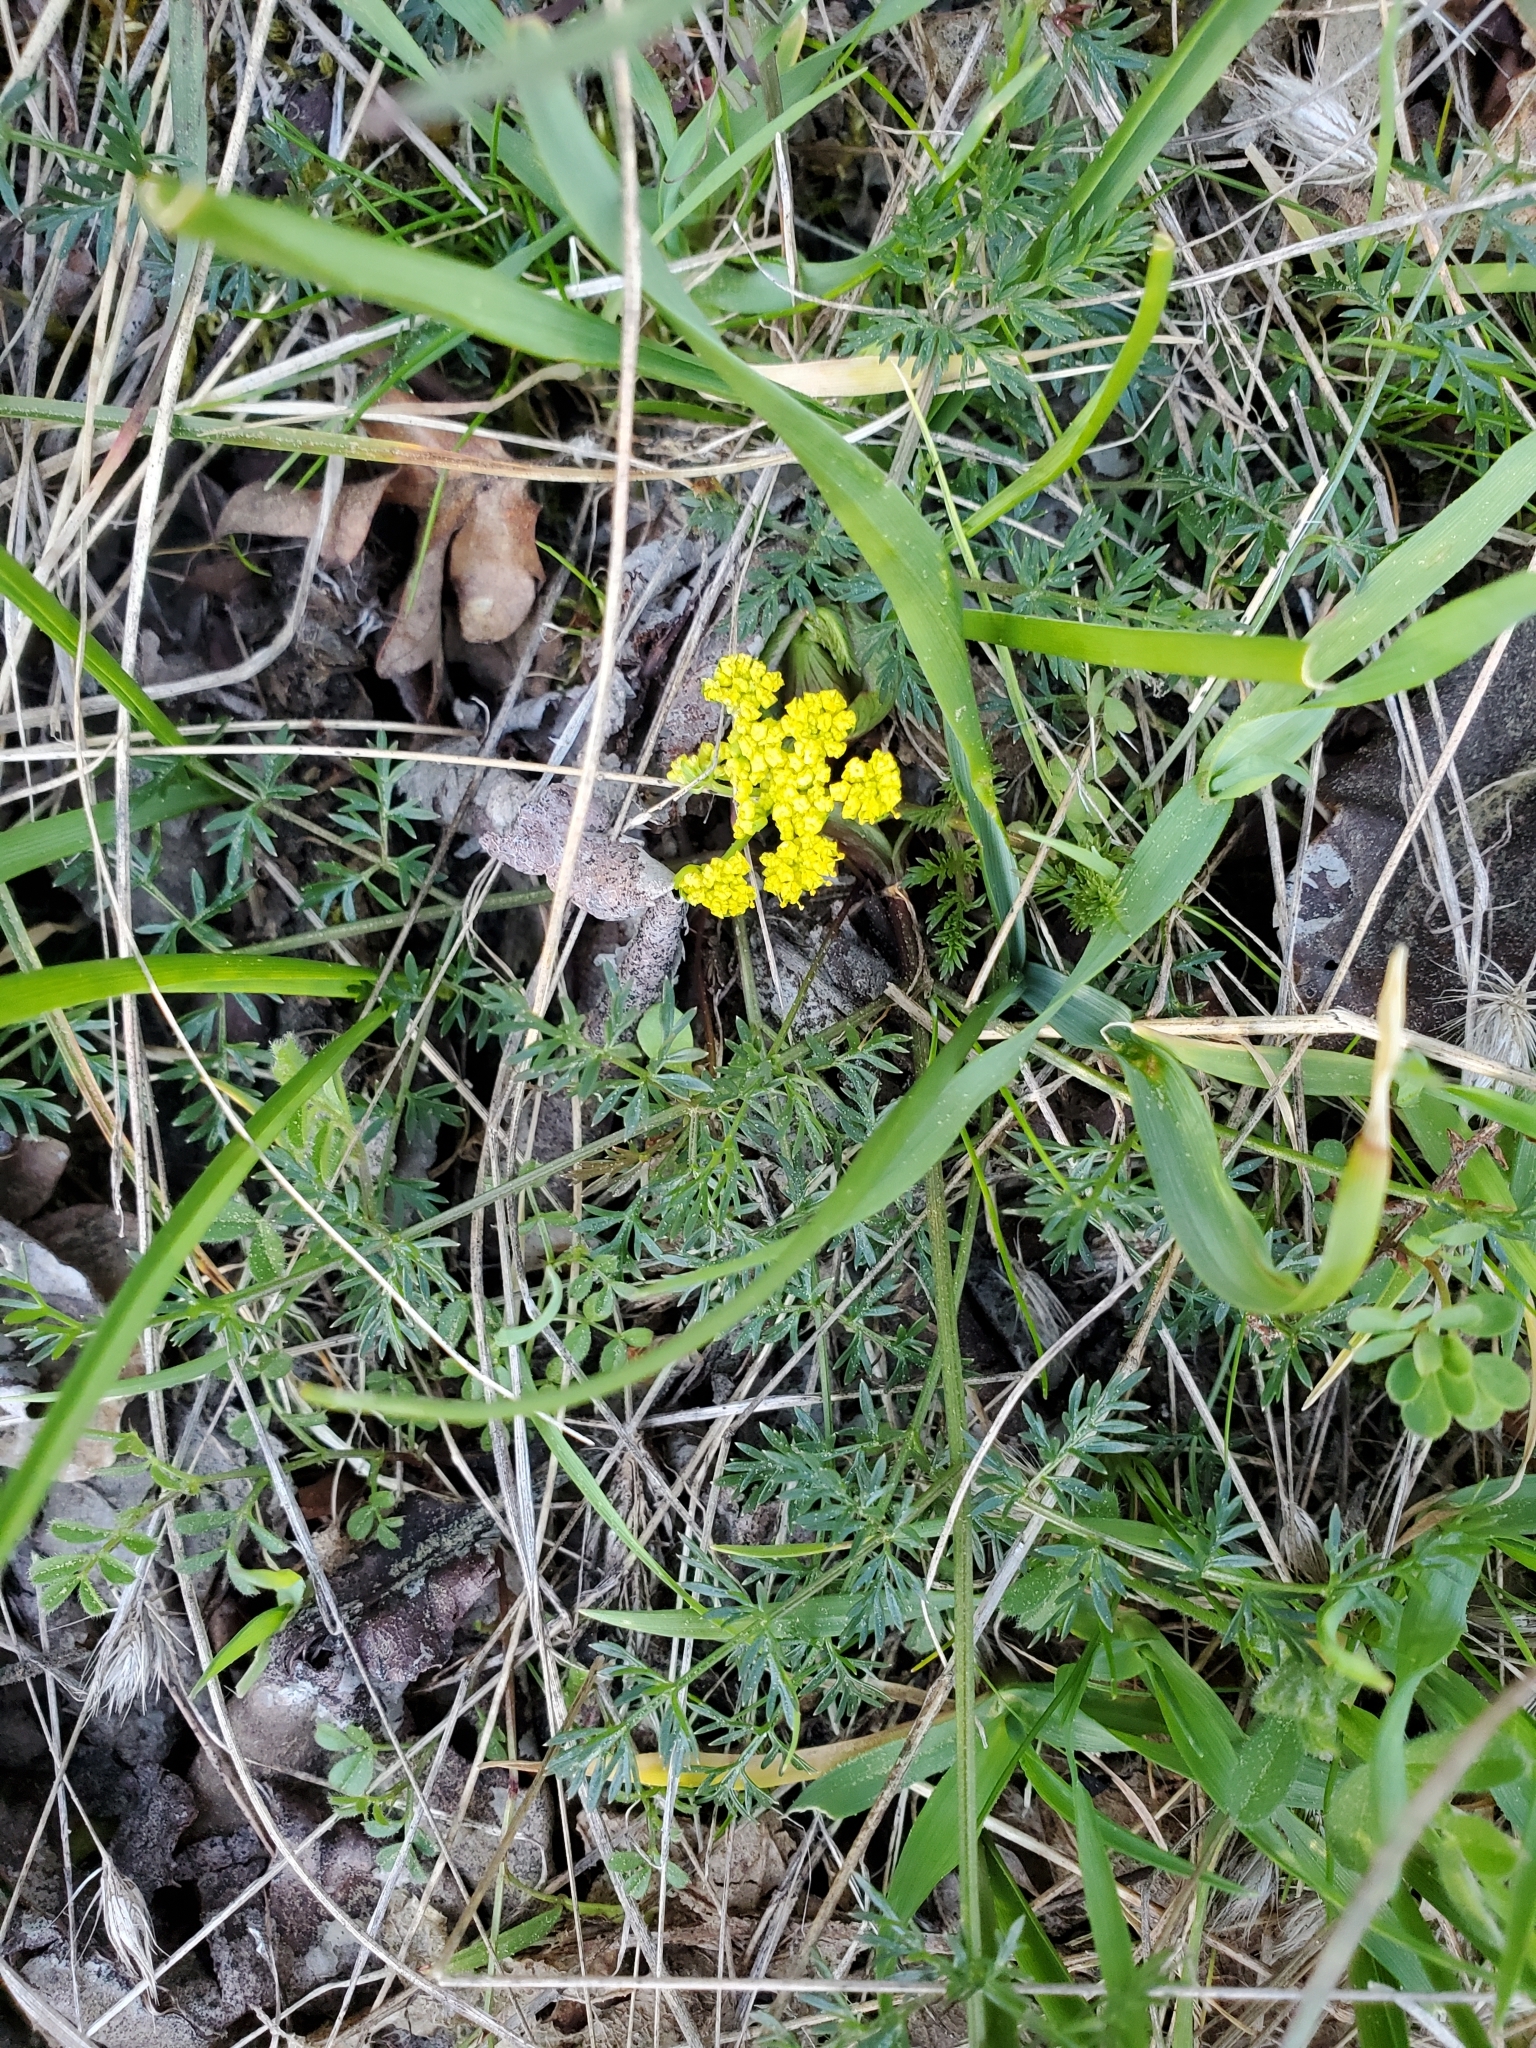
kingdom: Plantae
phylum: Tracheophyta
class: Magnoliopsida
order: Apiales
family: Apiaceae
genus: Lomatium
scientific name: Lomatium utriculatum
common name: Fine-leaf desert-parsley
